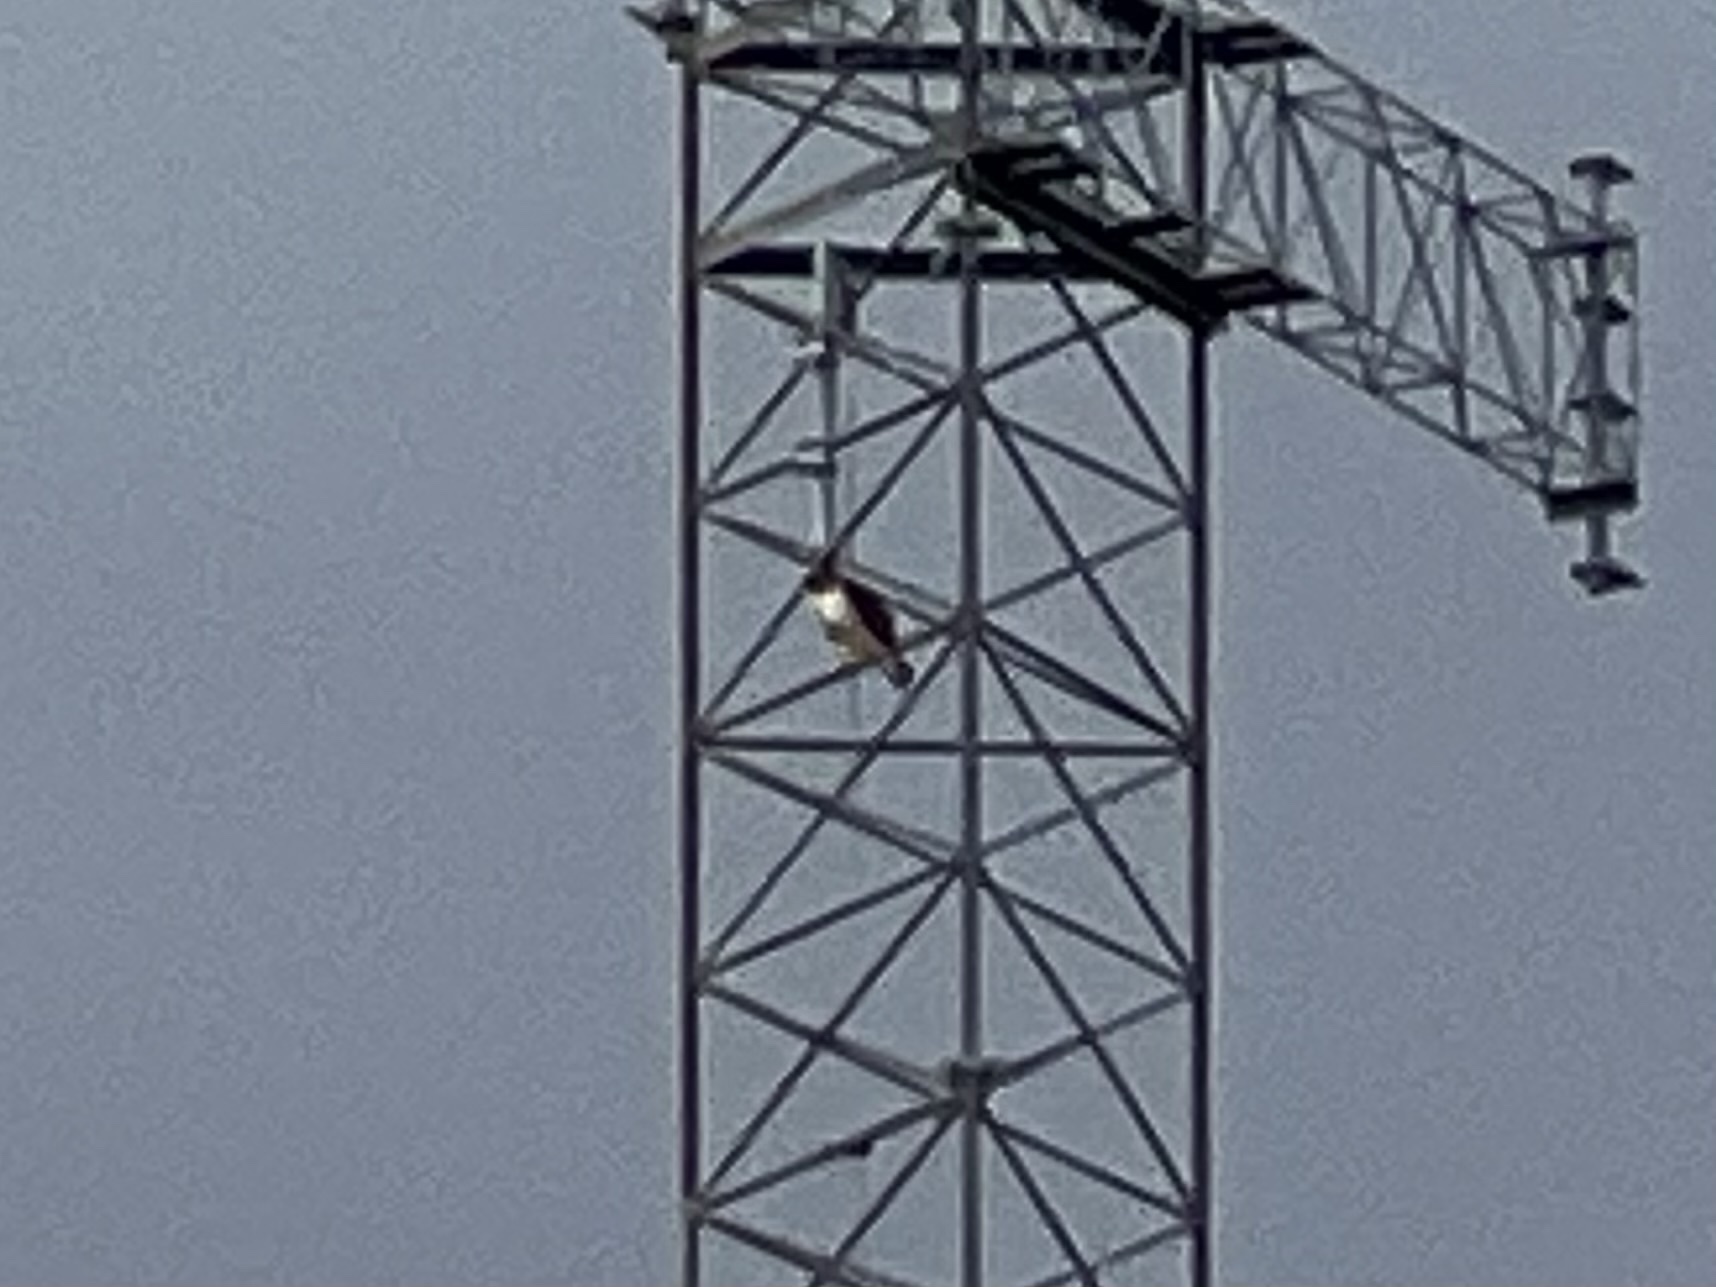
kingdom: Animalia
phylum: Chordata
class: Aves
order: Accipitriformes
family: Accipitridae
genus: Buteo
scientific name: Buteo jamaicensis
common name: Red-tailed hawk
